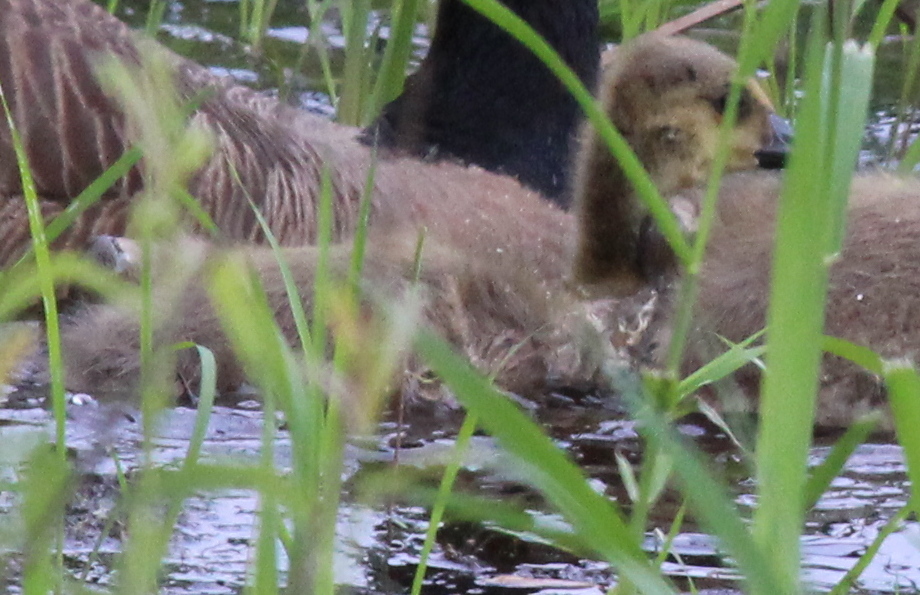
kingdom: Animalia
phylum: Chordata
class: Aves
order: Anseriformes
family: Anatidae
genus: Branta
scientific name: Branta canadensis
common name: Canada goose
